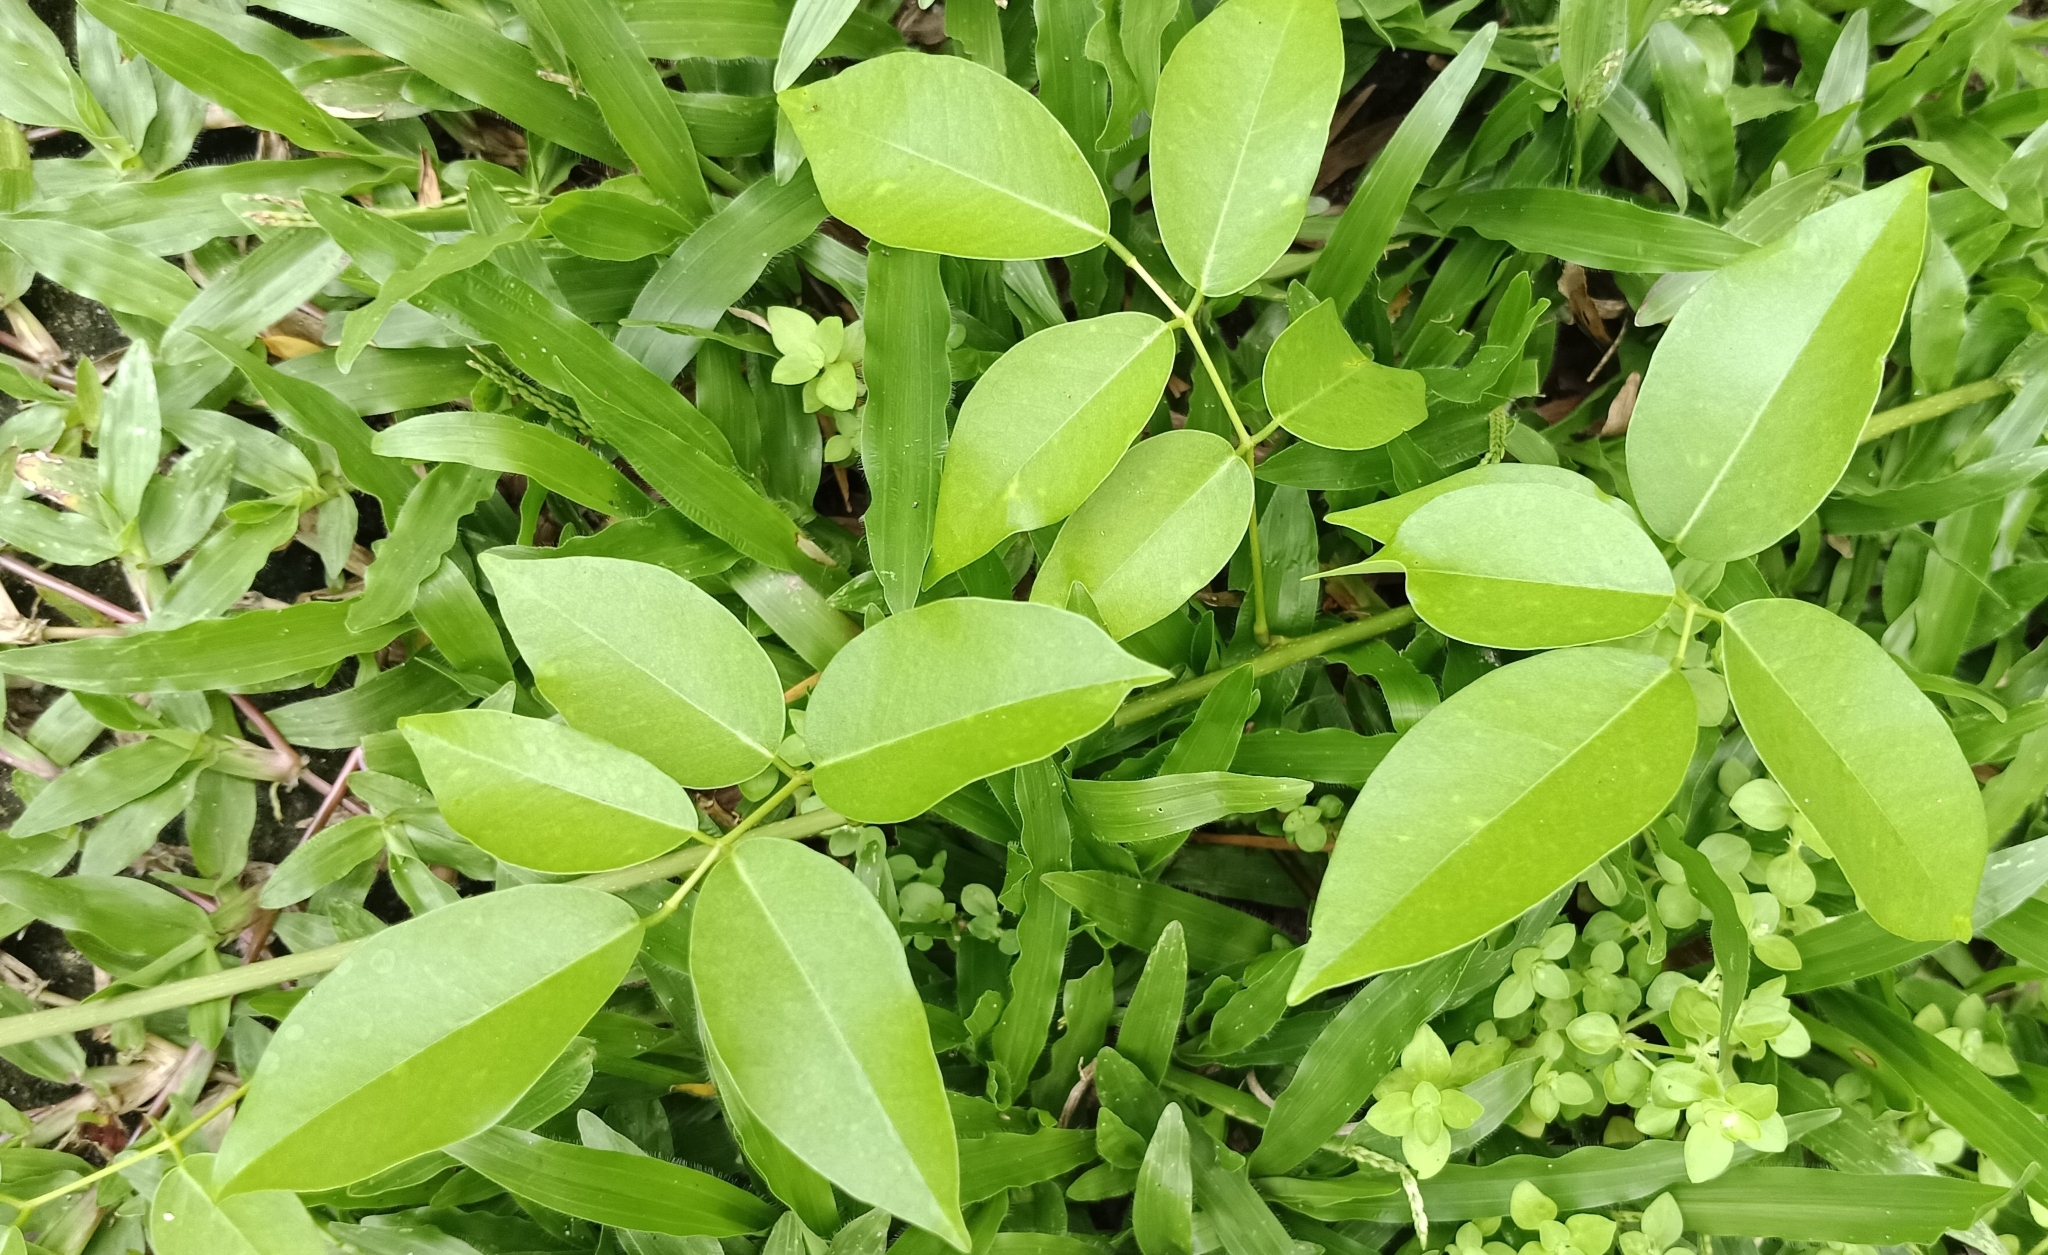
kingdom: Plantae
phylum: Tracheophyta
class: Magnoliopsida
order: Fabales
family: Fabaceae
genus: Derris
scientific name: Derris trifoliata
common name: Three-leaf derris
